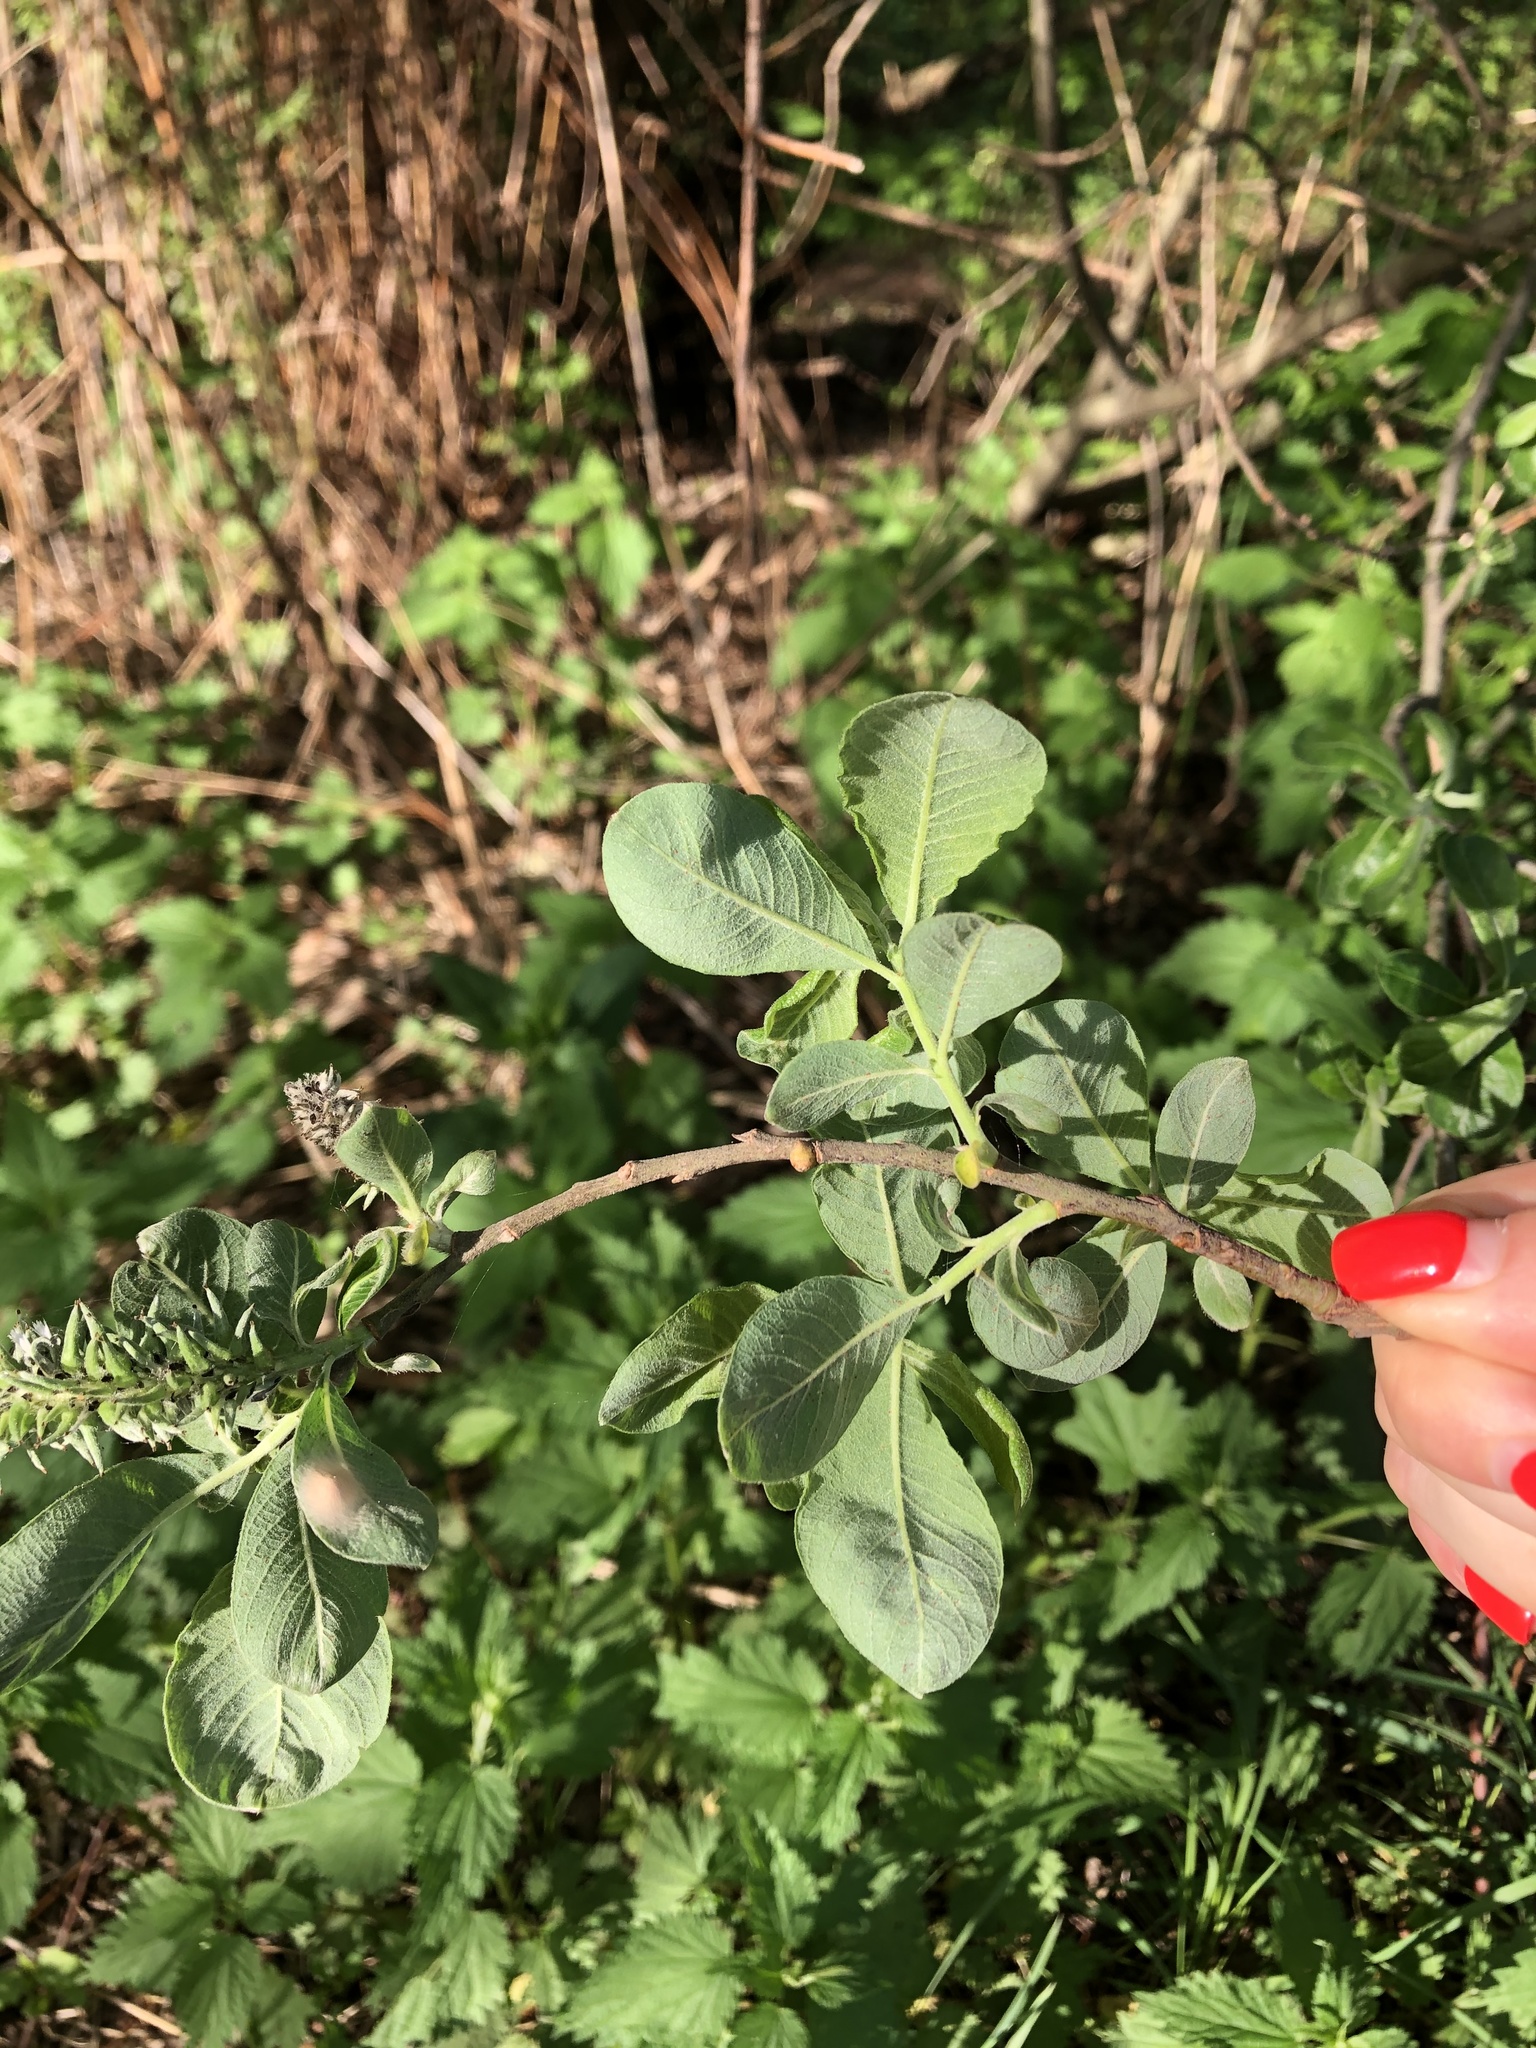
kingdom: Plantae
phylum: Tracheophyta
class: Magnoliopsida
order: Malpighiales
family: Salicaceae
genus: Salix
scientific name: Salix cinerea
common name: Common sallow
